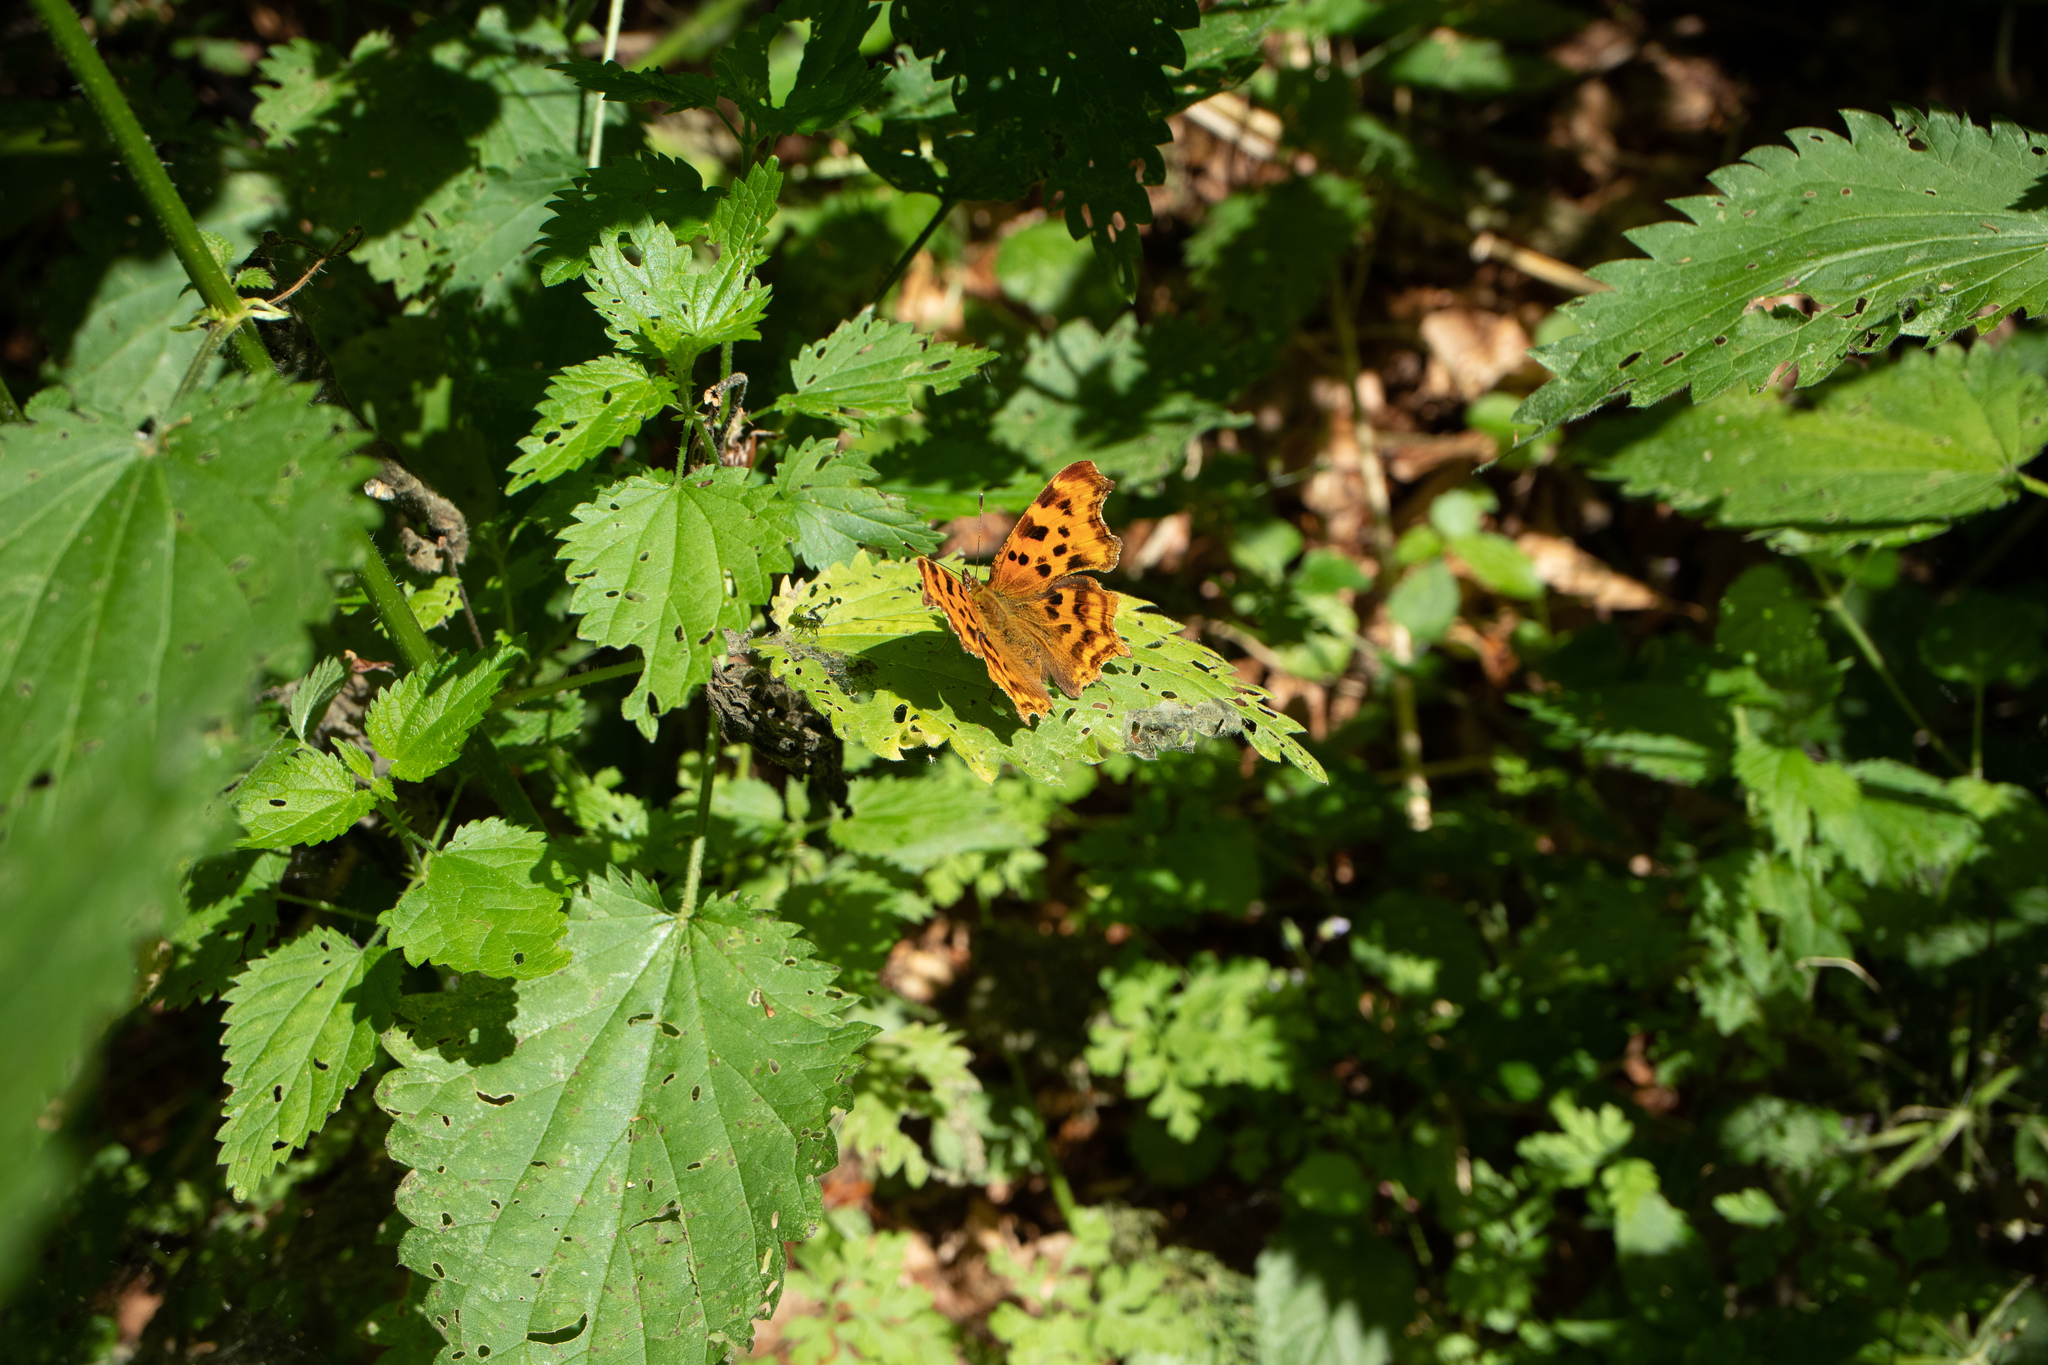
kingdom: Animalia
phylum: Arthropoda
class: Insecta
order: Lepidoptera
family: Nymphalidae
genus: Polygonia
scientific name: Polygonia c-album
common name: Comma
